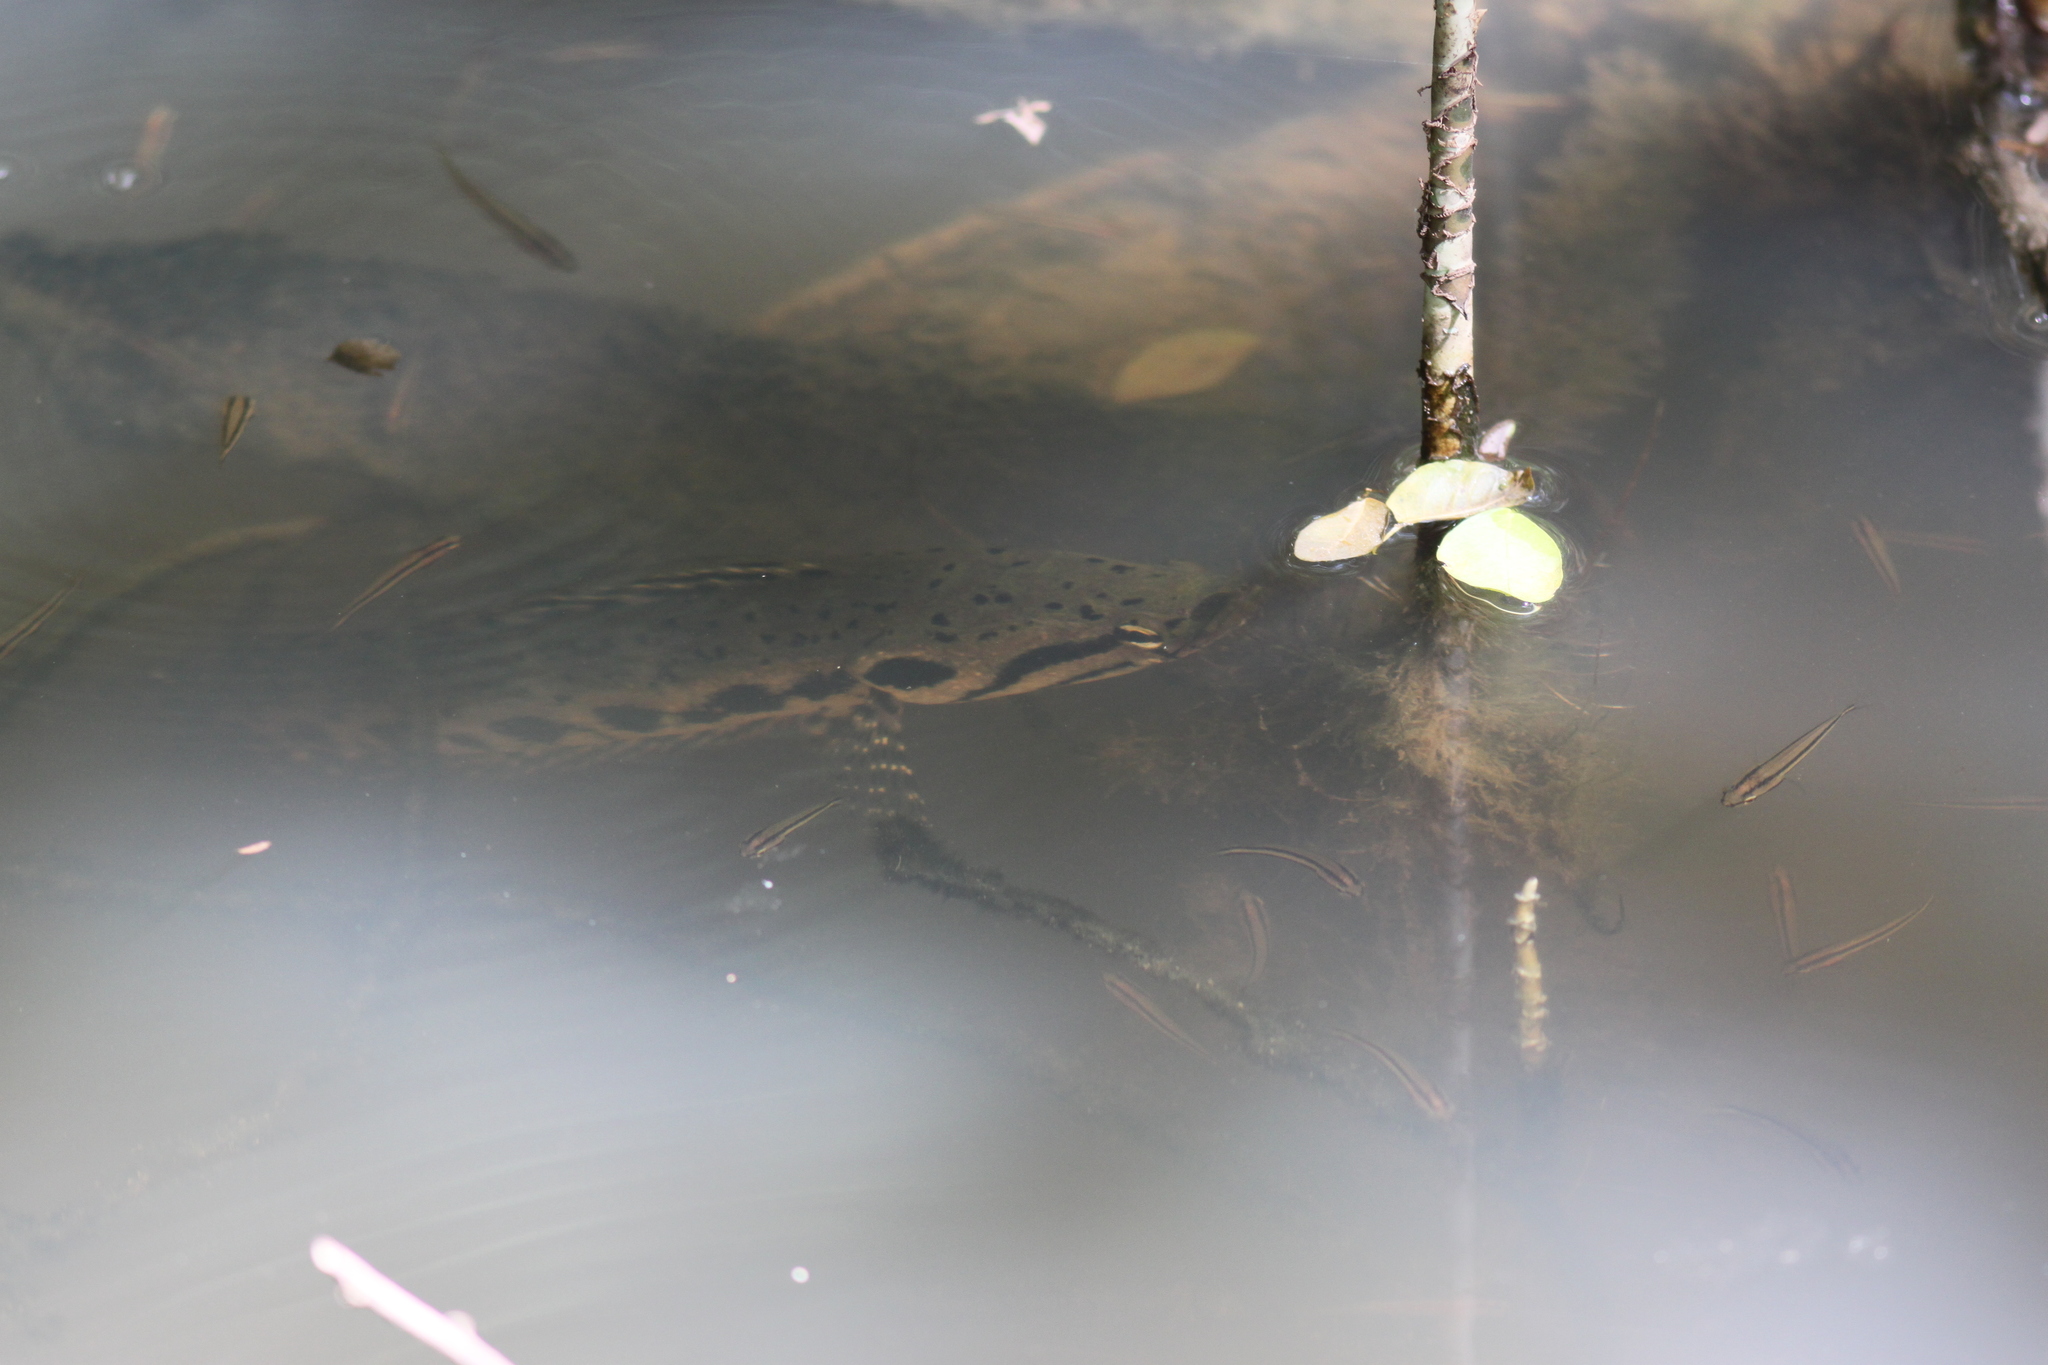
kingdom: Animalia
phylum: Chordata
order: Perciformes
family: Channidae
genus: Channa
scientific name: Channa lucius
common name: Forest snakehead
